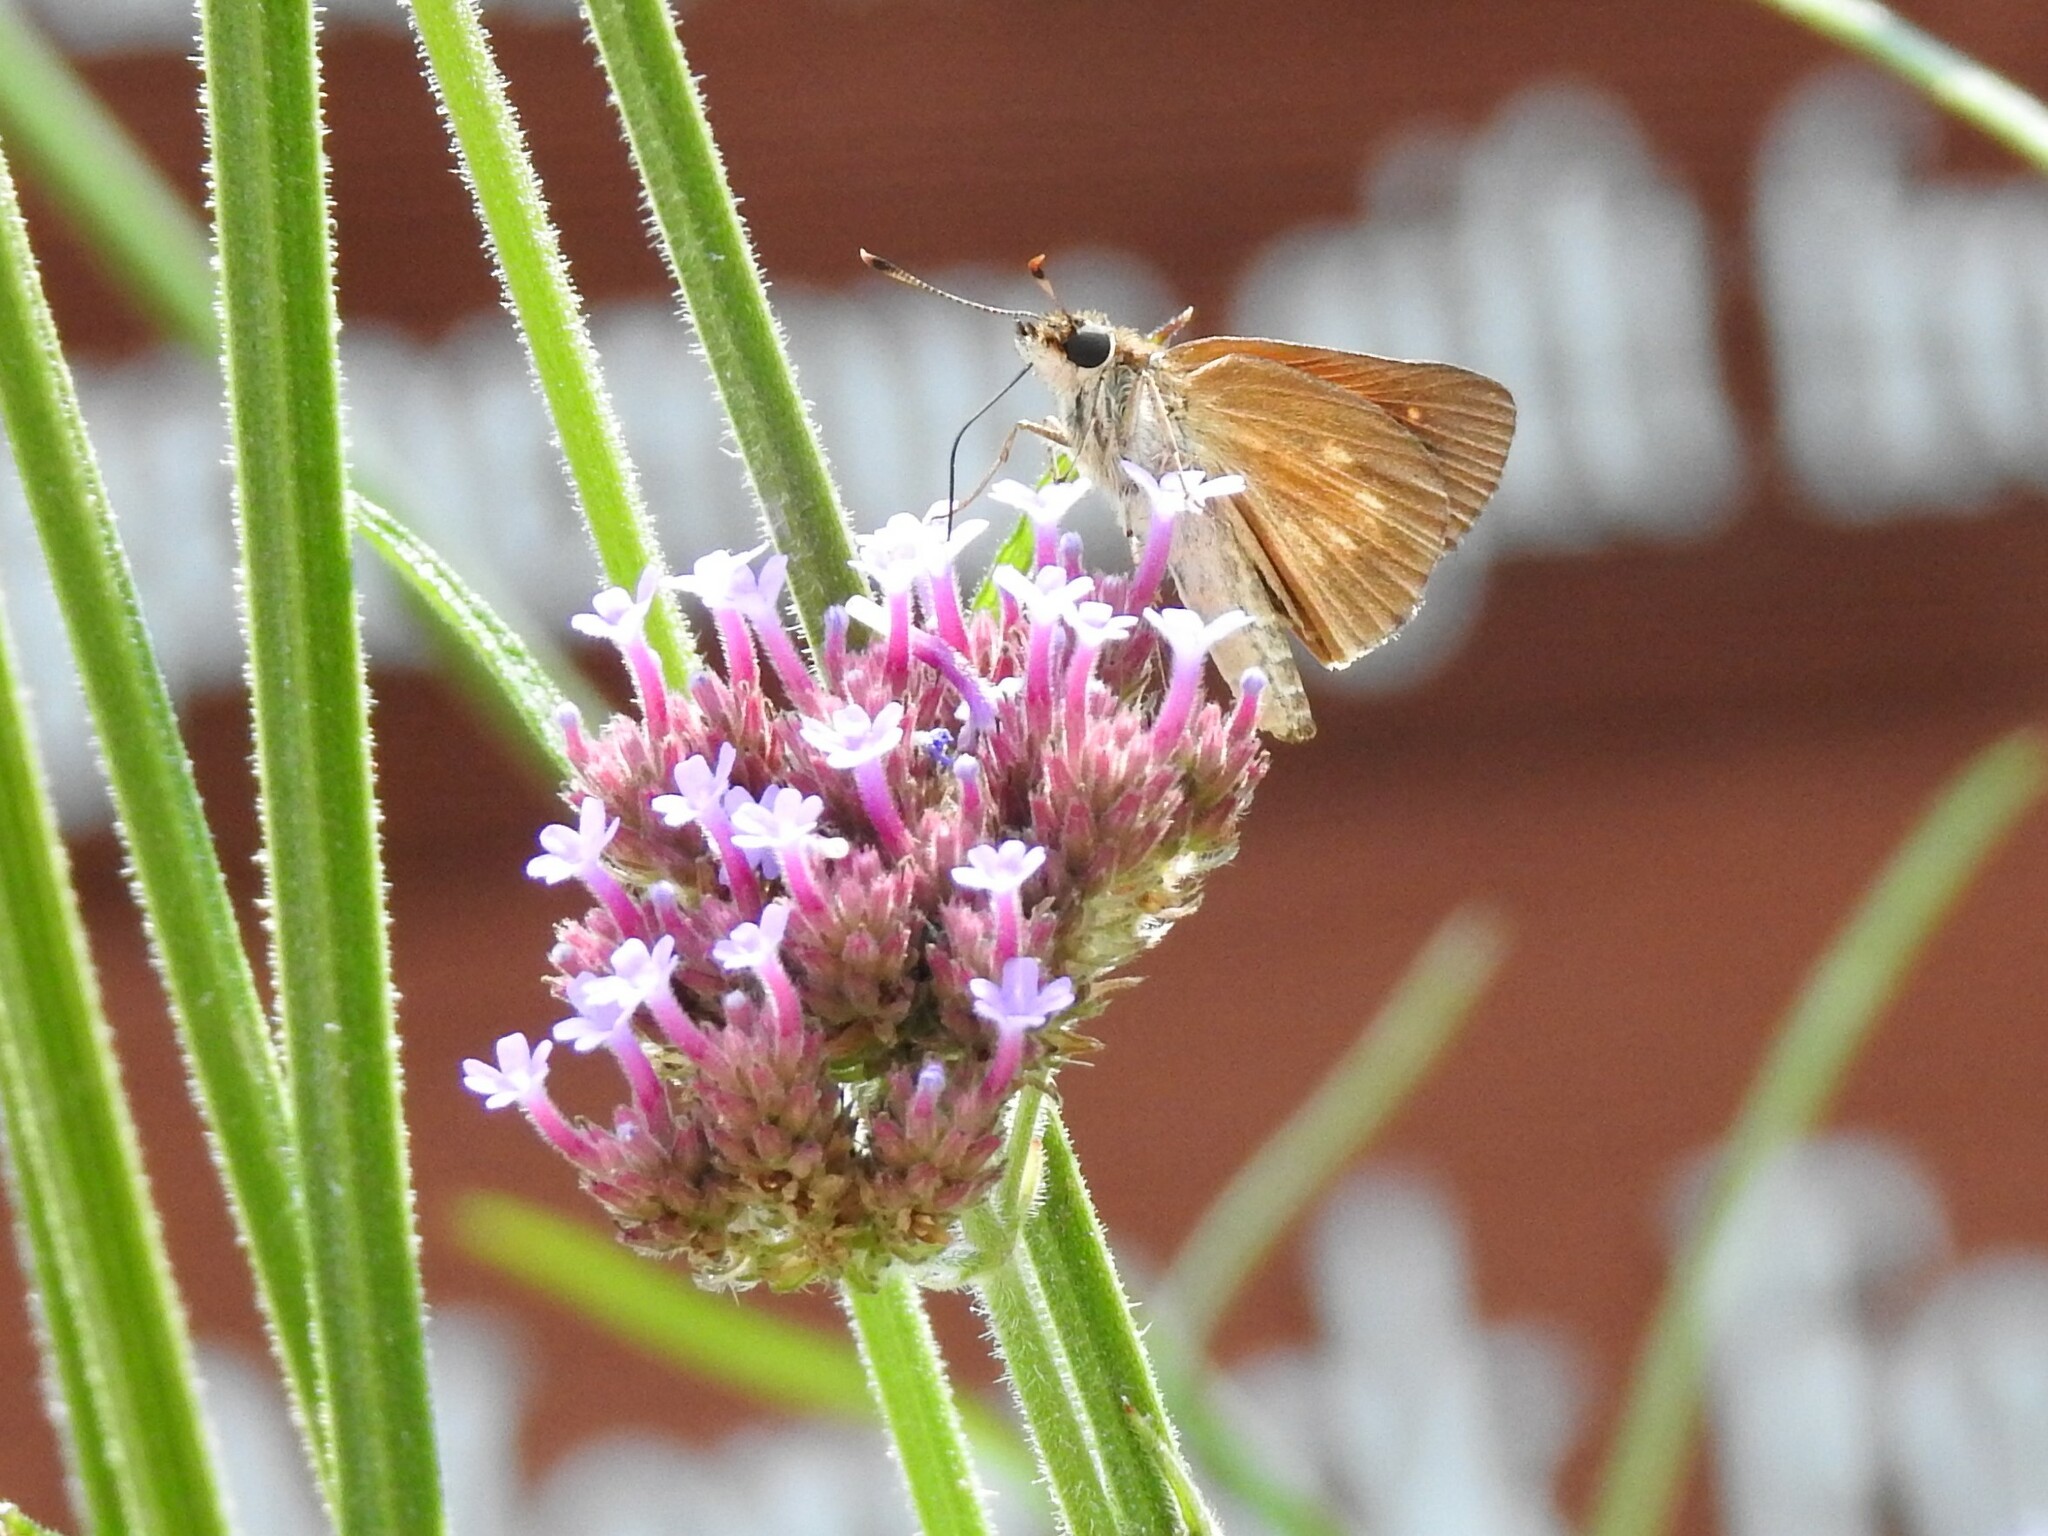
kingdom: Animalia
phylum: Arthropoda
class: Insecta
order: Lepidoptera
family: Hesperiidae
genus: Poanes
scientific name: Poanes viator
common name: Broad-winged skipper
